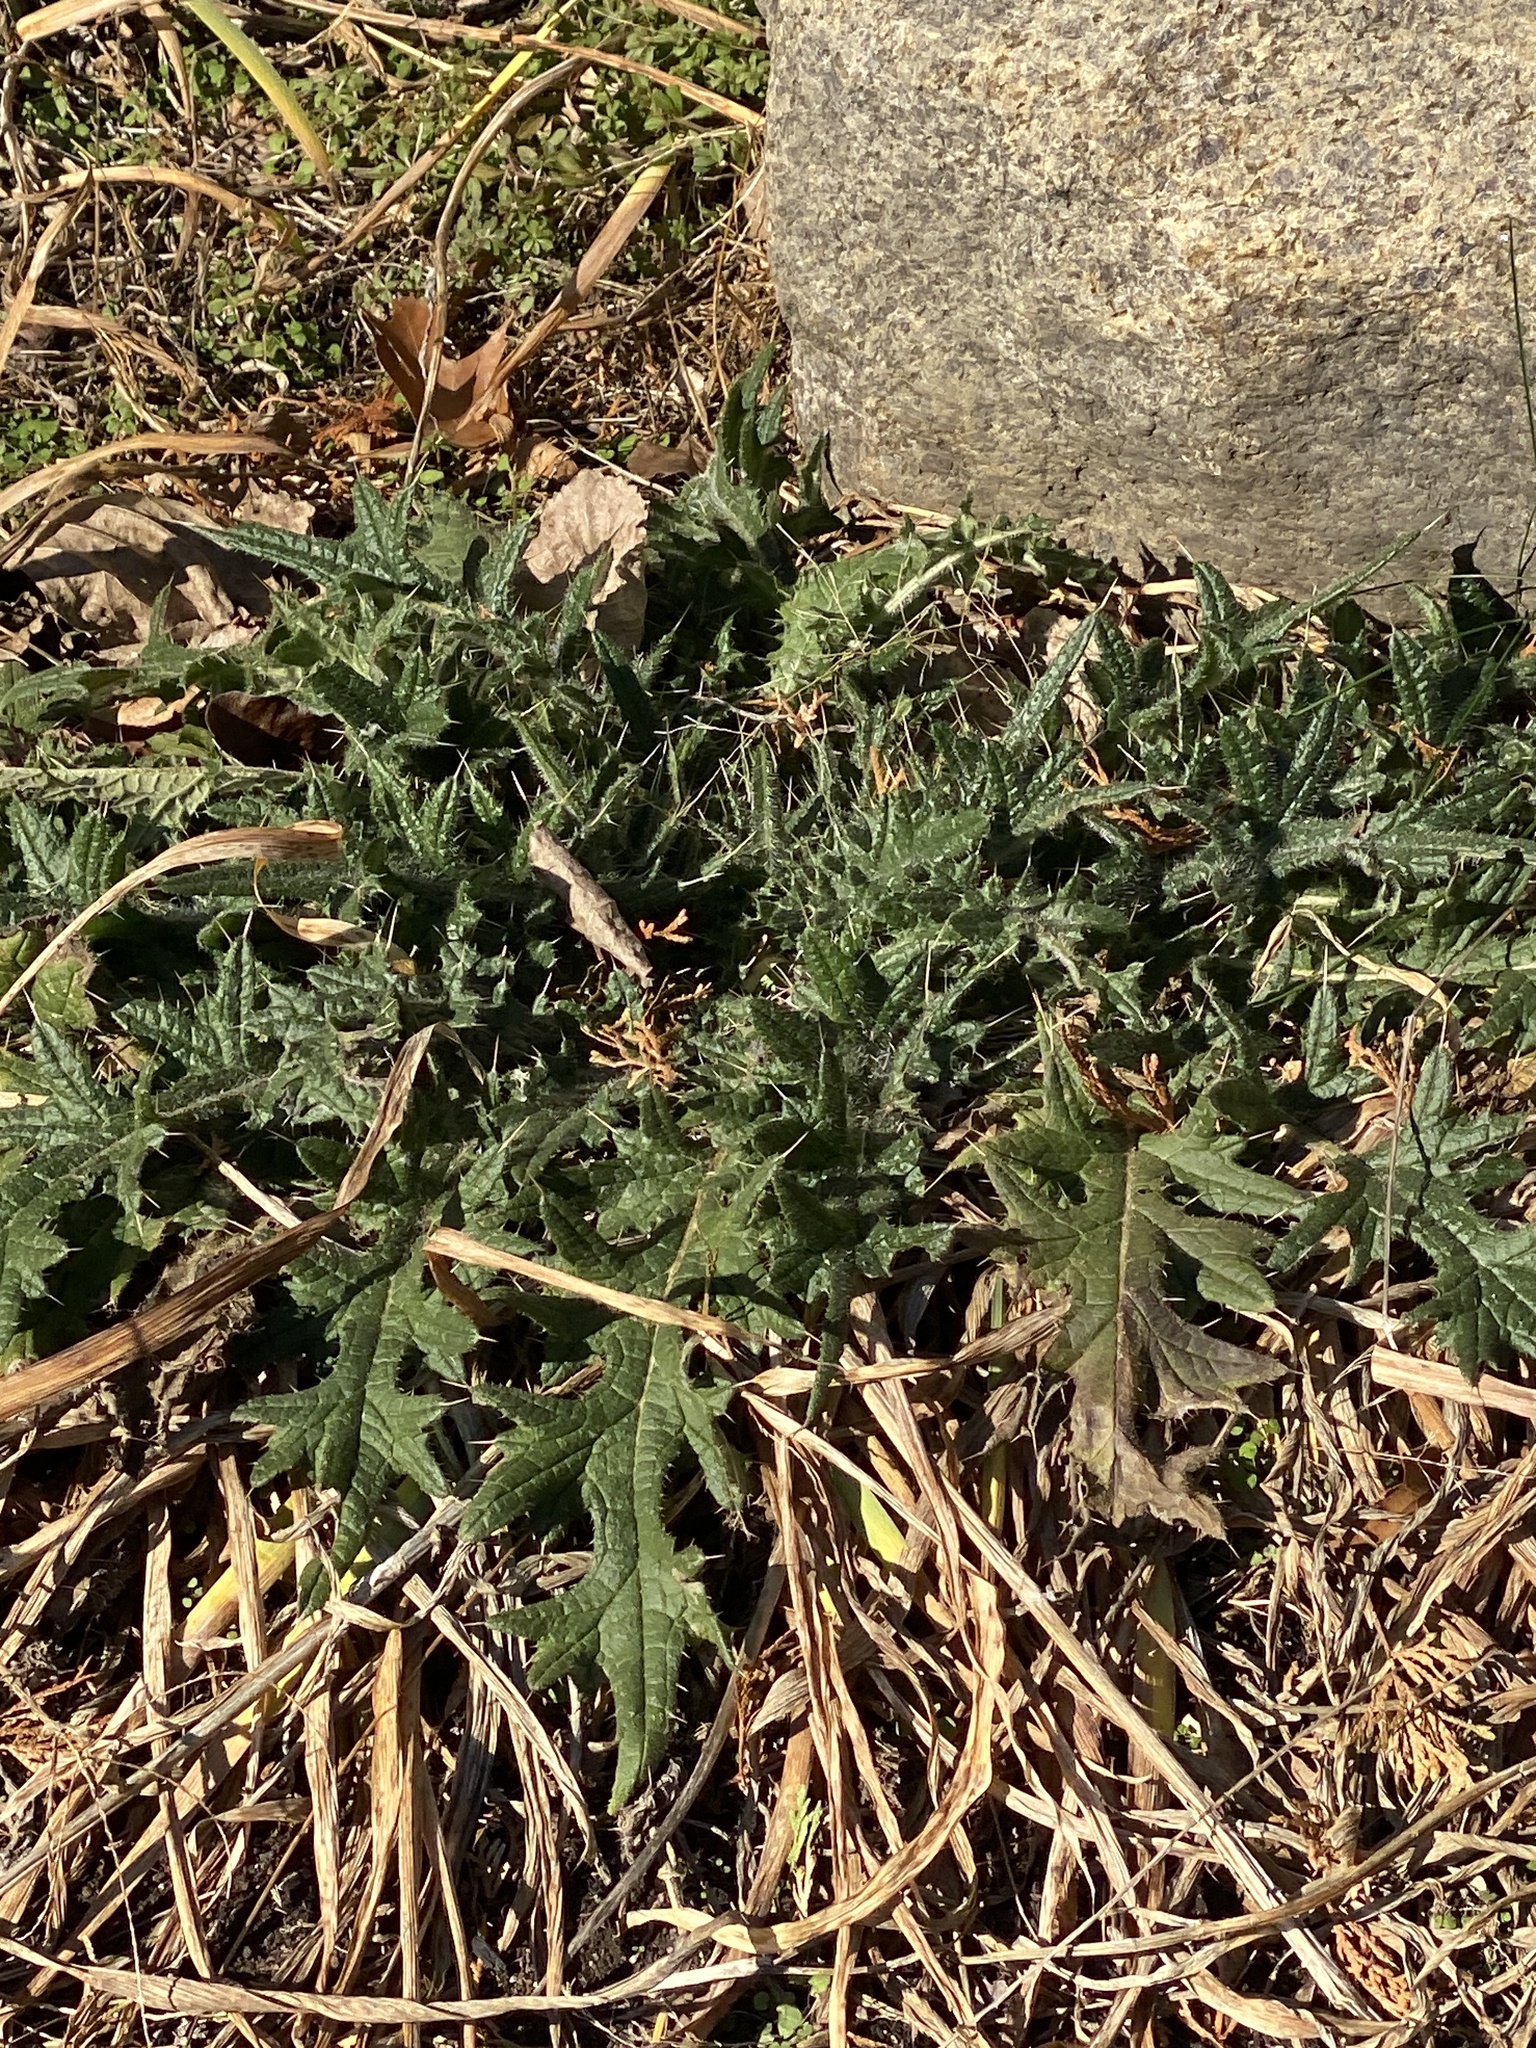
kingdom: Plantae
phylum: Tracheophyta
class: Magnoliopsida
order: Asterales
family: Asteraceae
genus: Cirsium
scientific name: Cirsium vulgare
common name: Bull thistle
